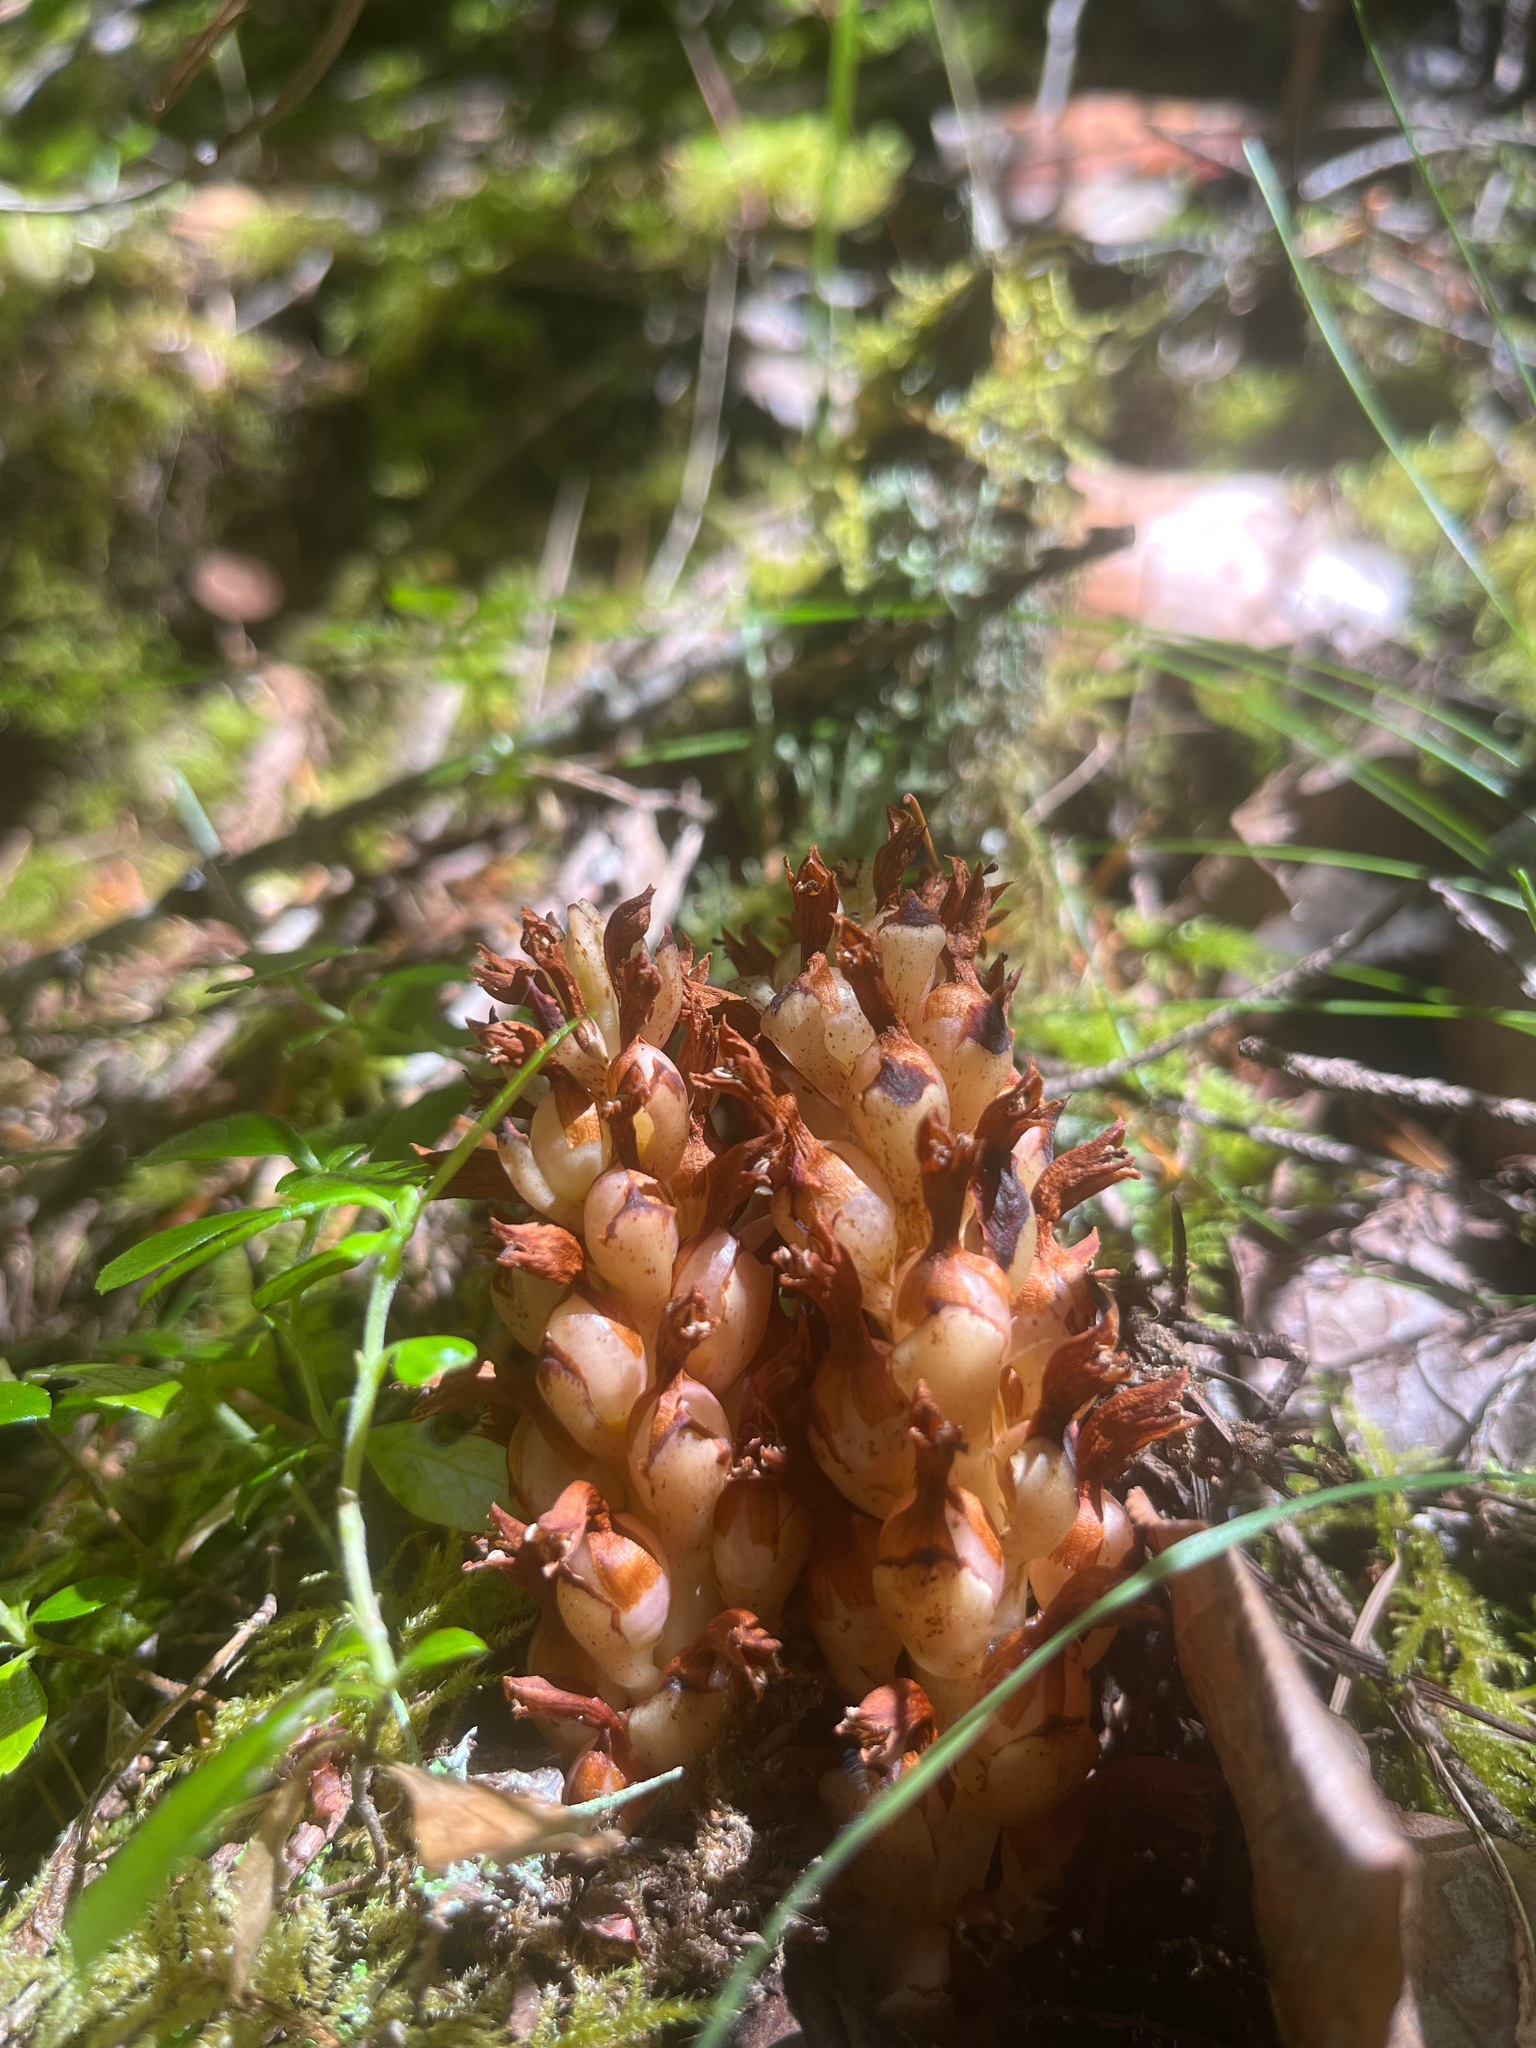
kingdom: Plantae
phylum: Tracheophyta
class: Magnoliopsida
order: Lamiales
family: Orobanchaceae
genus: Kopsiopsis
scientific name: Kopsiopsis hookeri
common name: Hooker's groundcone
